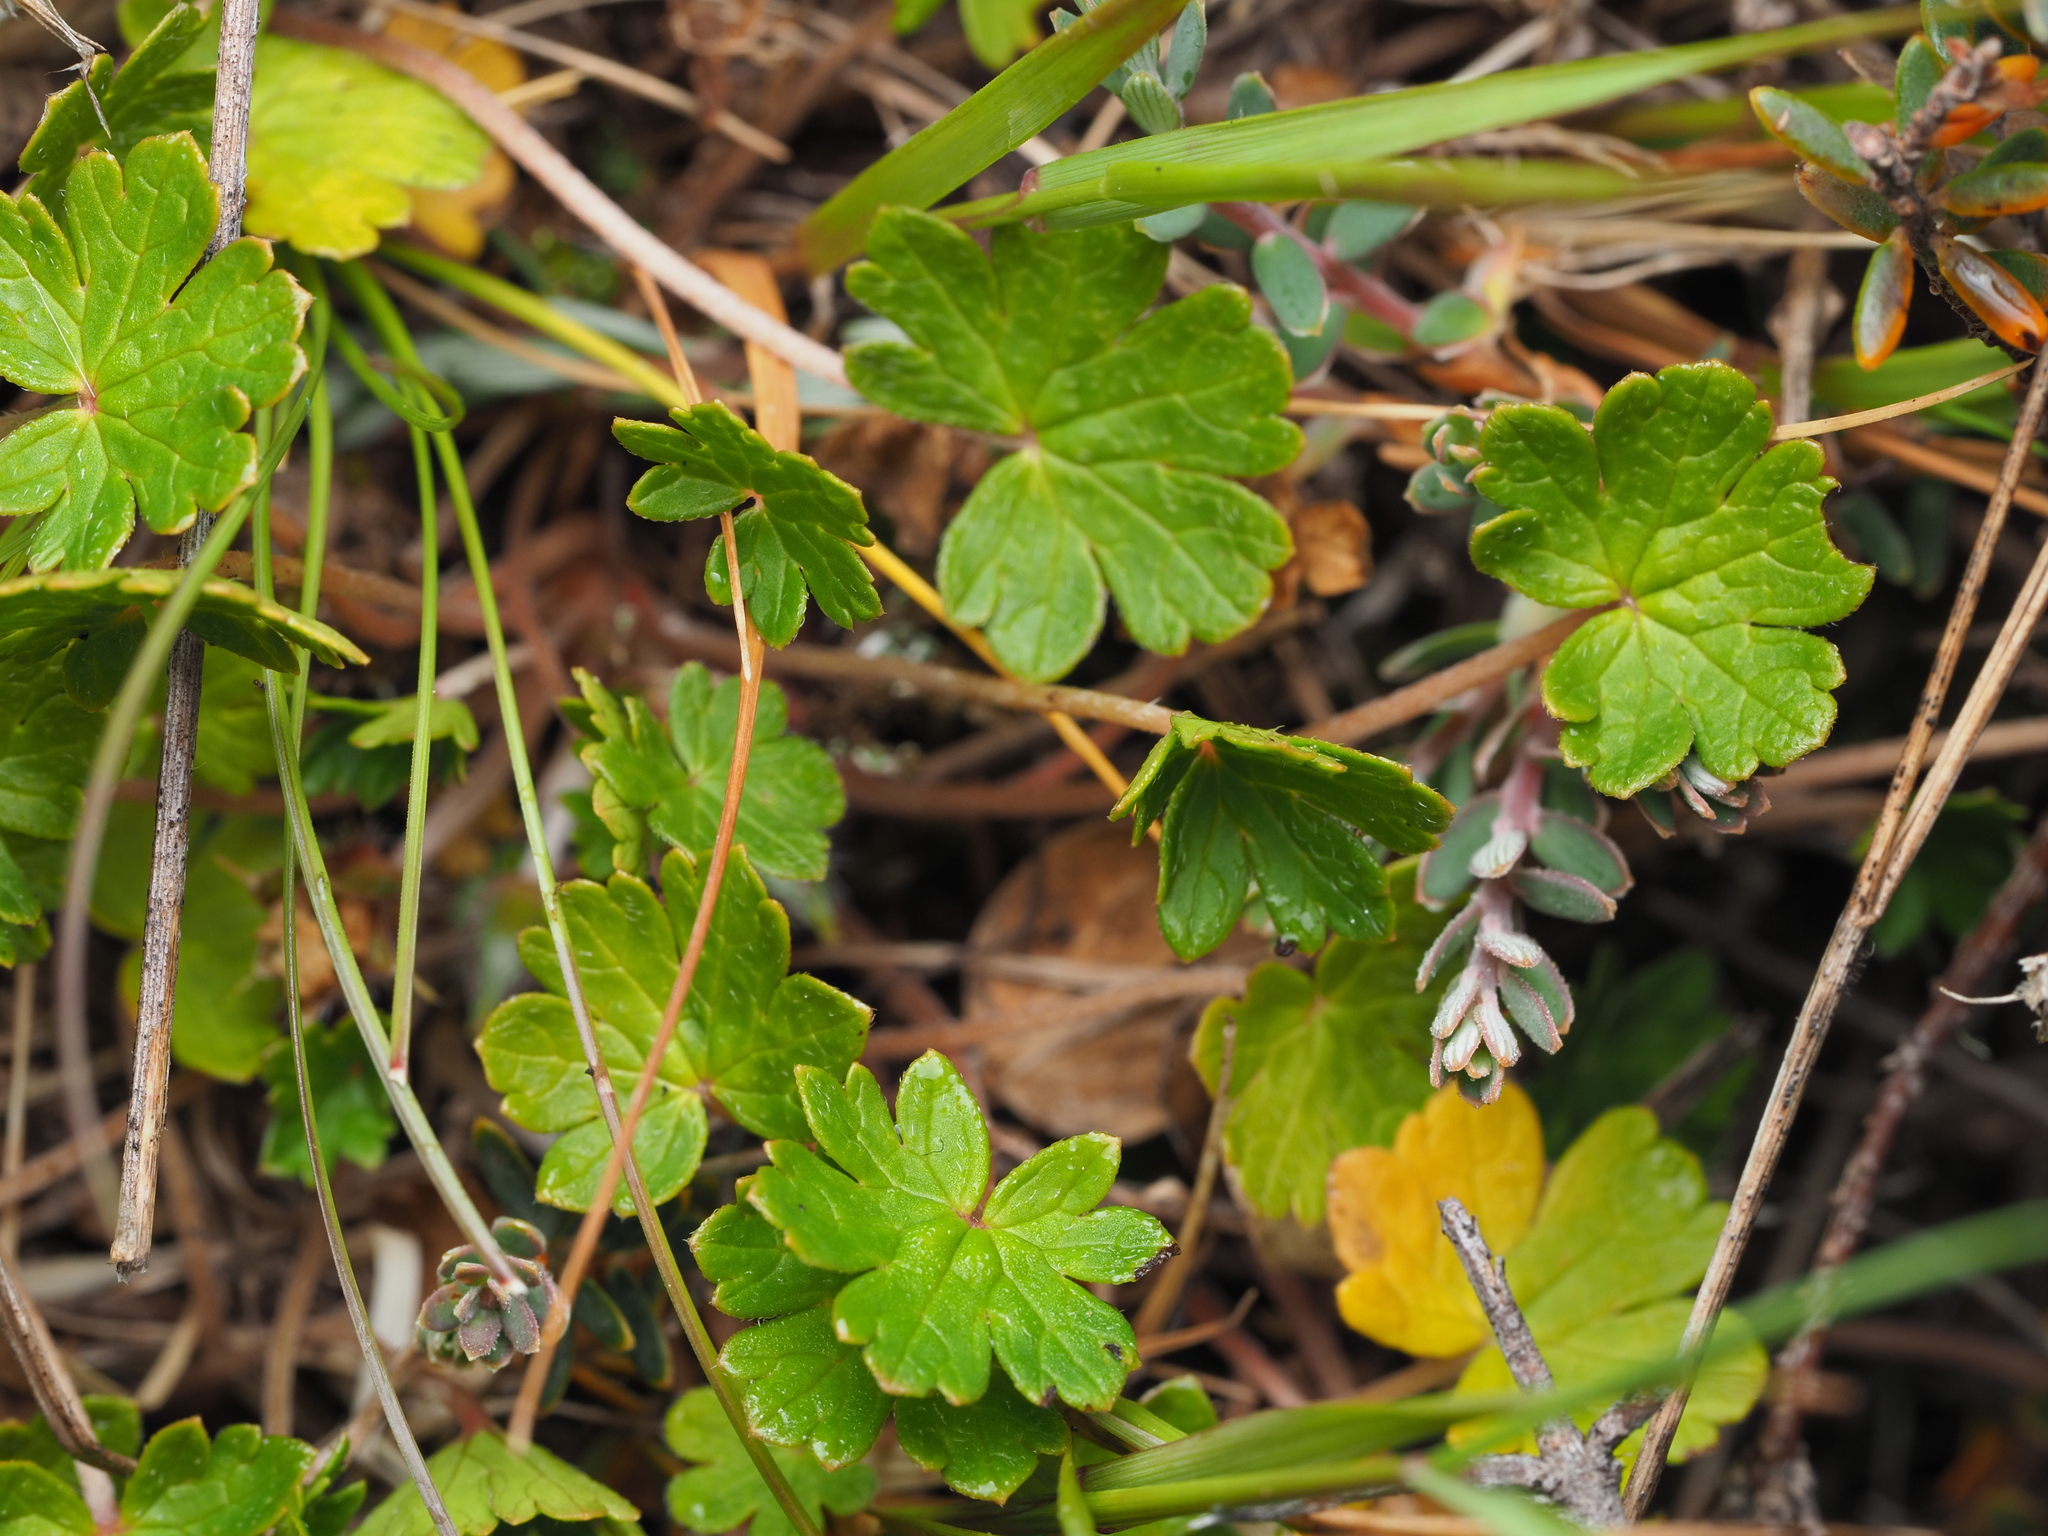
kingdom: Plantae
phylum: Tracheophyta
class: Magnoliopsida
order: Geraniales
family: Geraniaceae
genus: Geranium
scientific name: Geranium brevicaule
